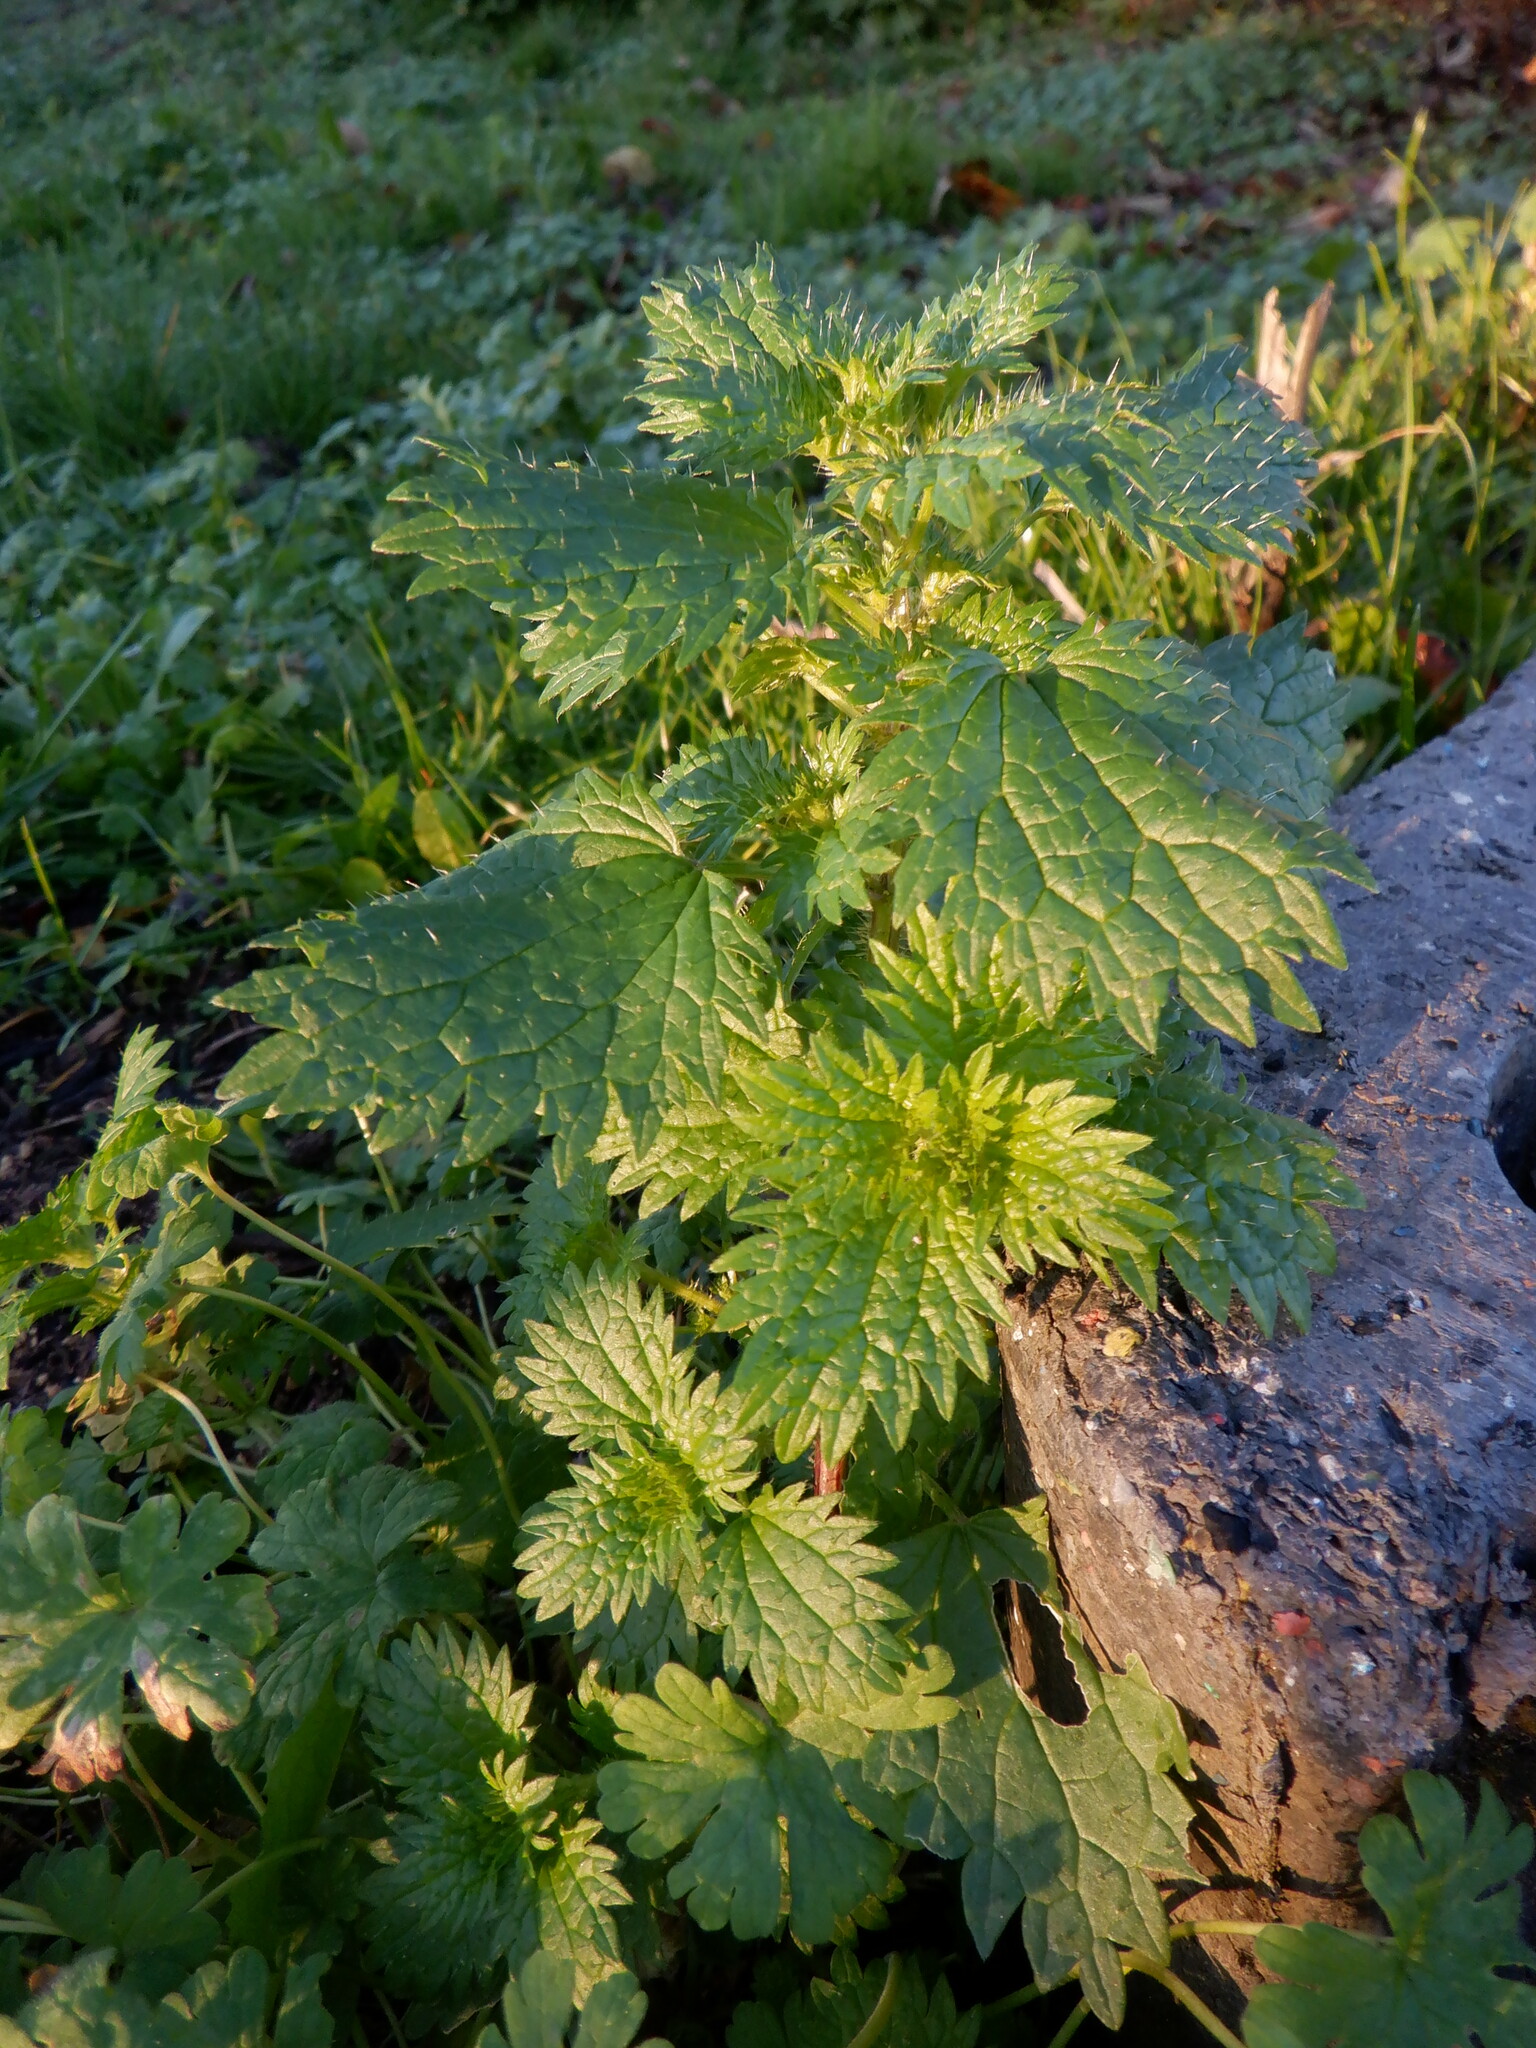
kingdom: Plantae
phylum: Tracheophyta
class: Magnoliopsida
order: Rosales
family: Urticaceae
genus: Urtica
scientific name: Urtica urens
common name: Dwarf nettle
